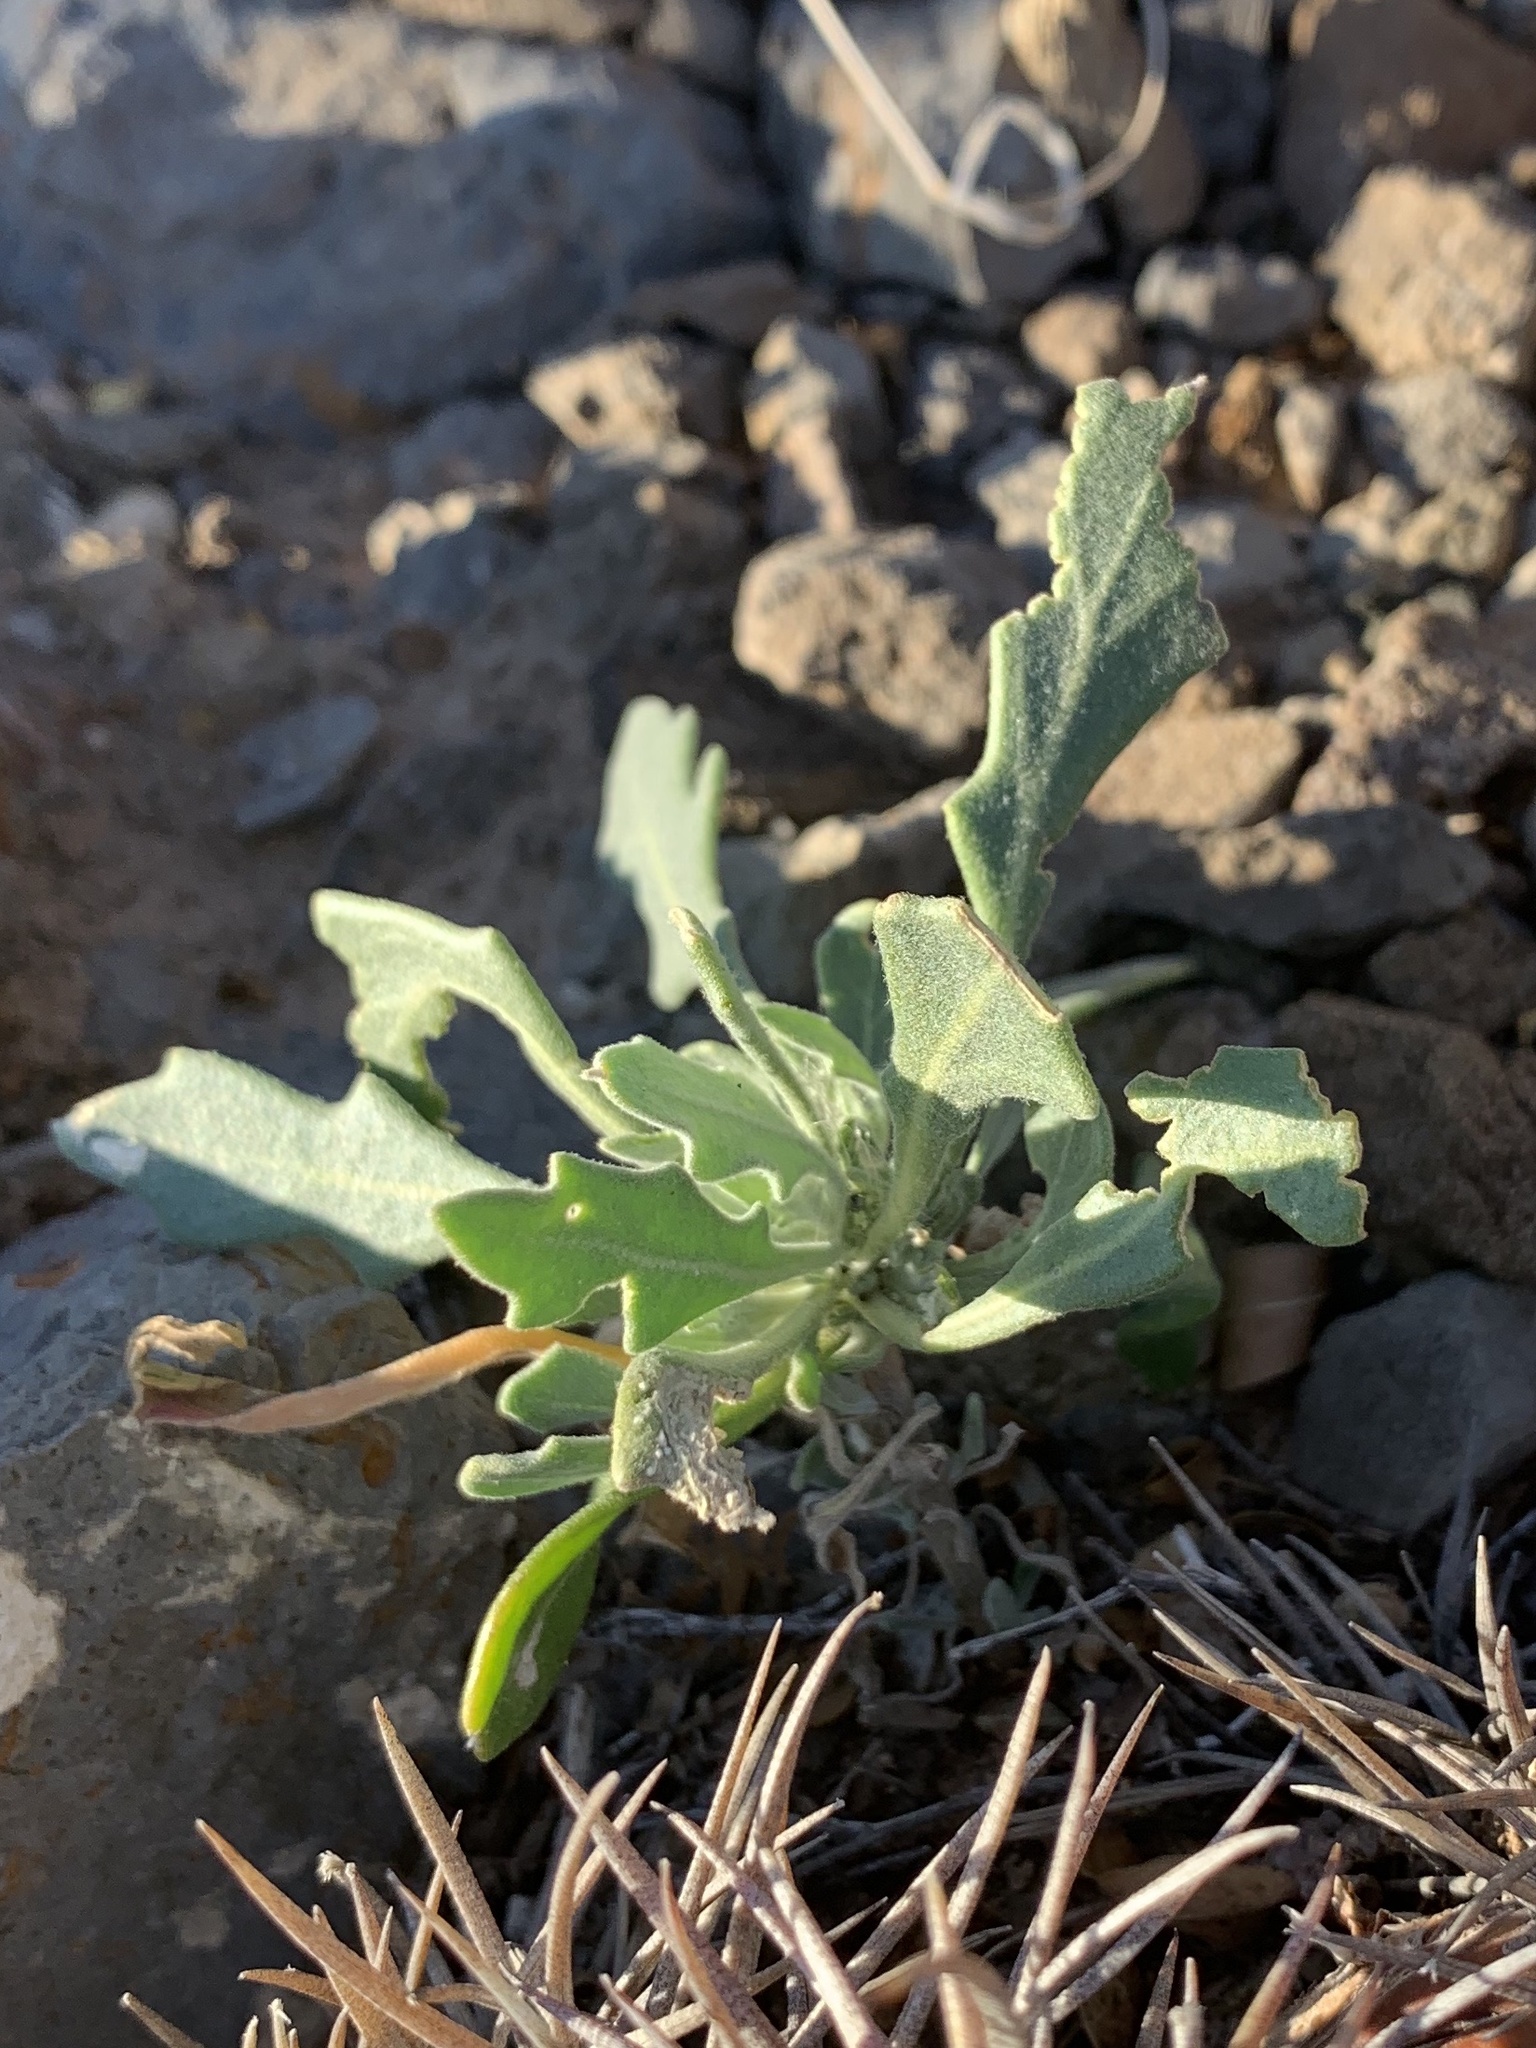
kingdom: Plantae
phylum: Tracheophyta
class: Magnoliopsida
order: Brassicales
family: Brassicaceae
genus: Nerisyrenia
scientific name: Nerisyrenia camporum
